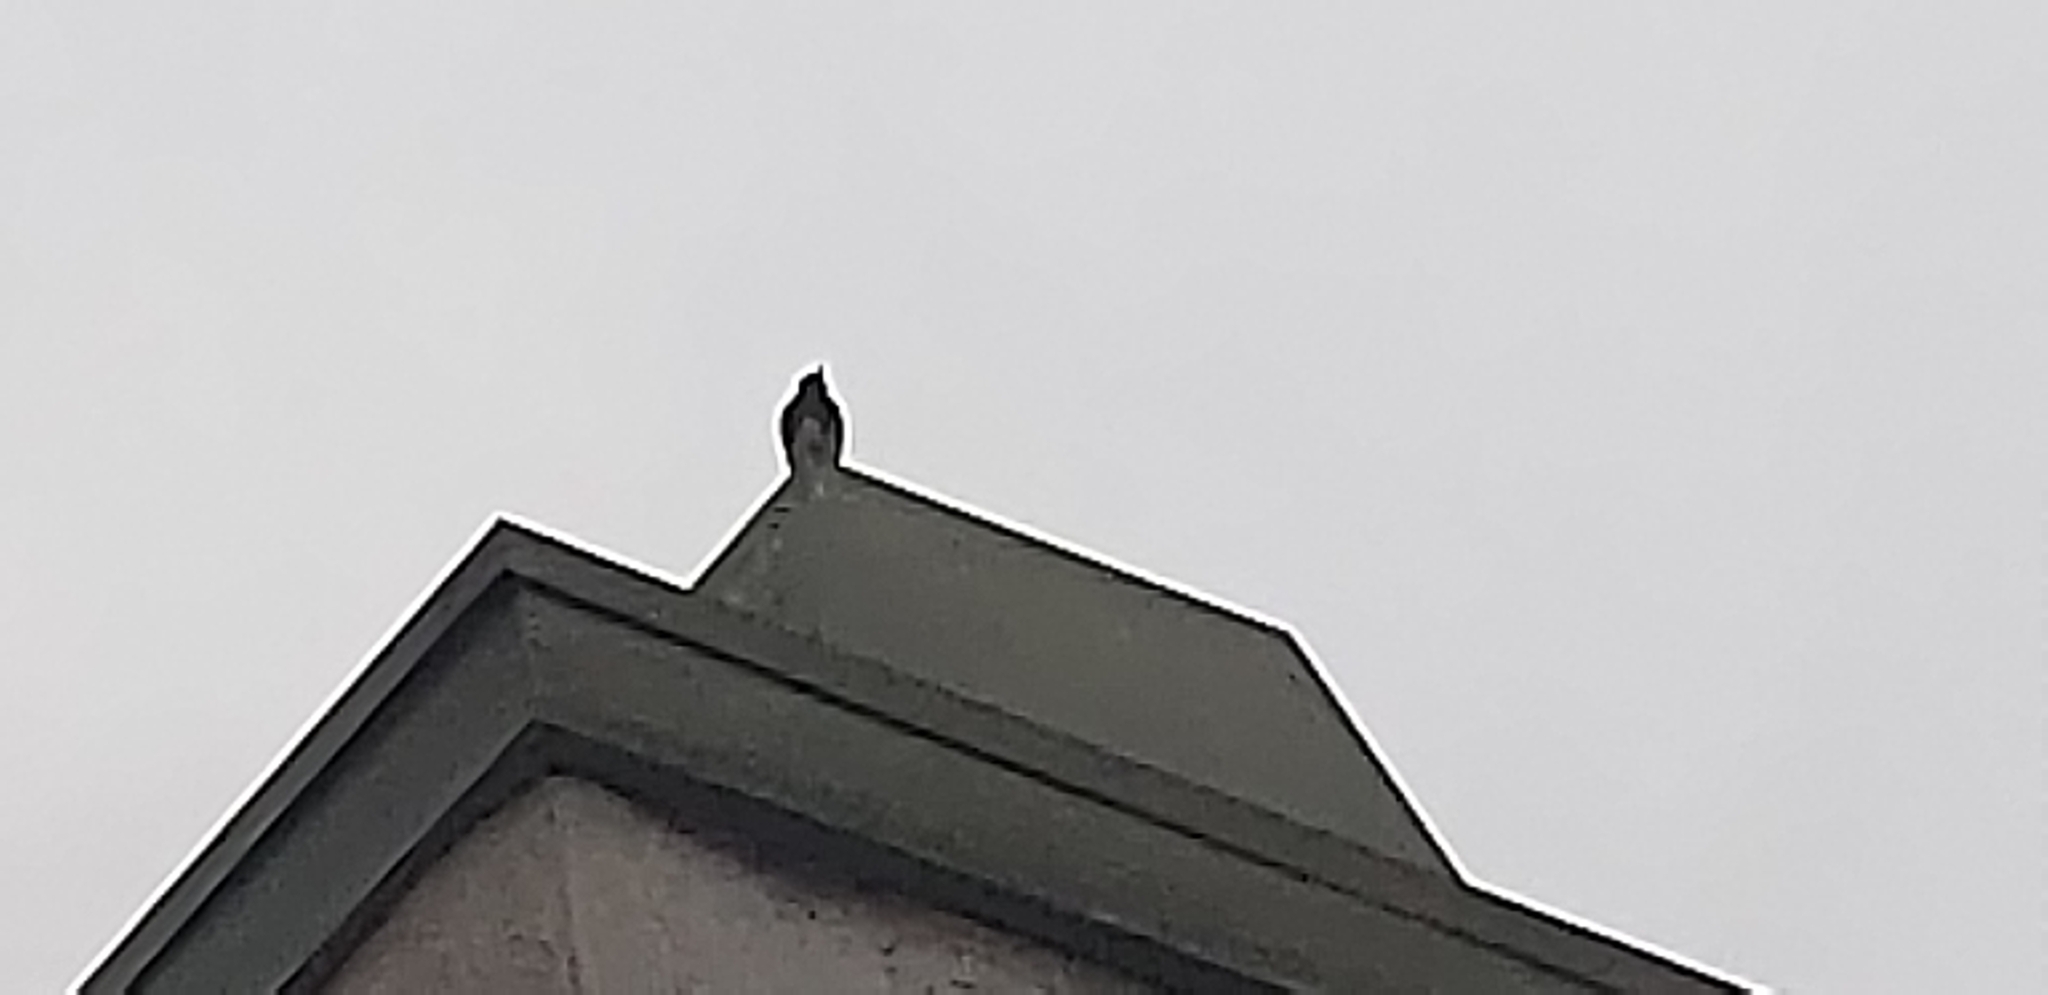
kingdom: Animalia
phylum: Chordata
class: Aves
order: Passeriformes
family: Tyrannidae
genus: Sayornis
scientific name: Sayornis nigricans
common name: Black phoebe
